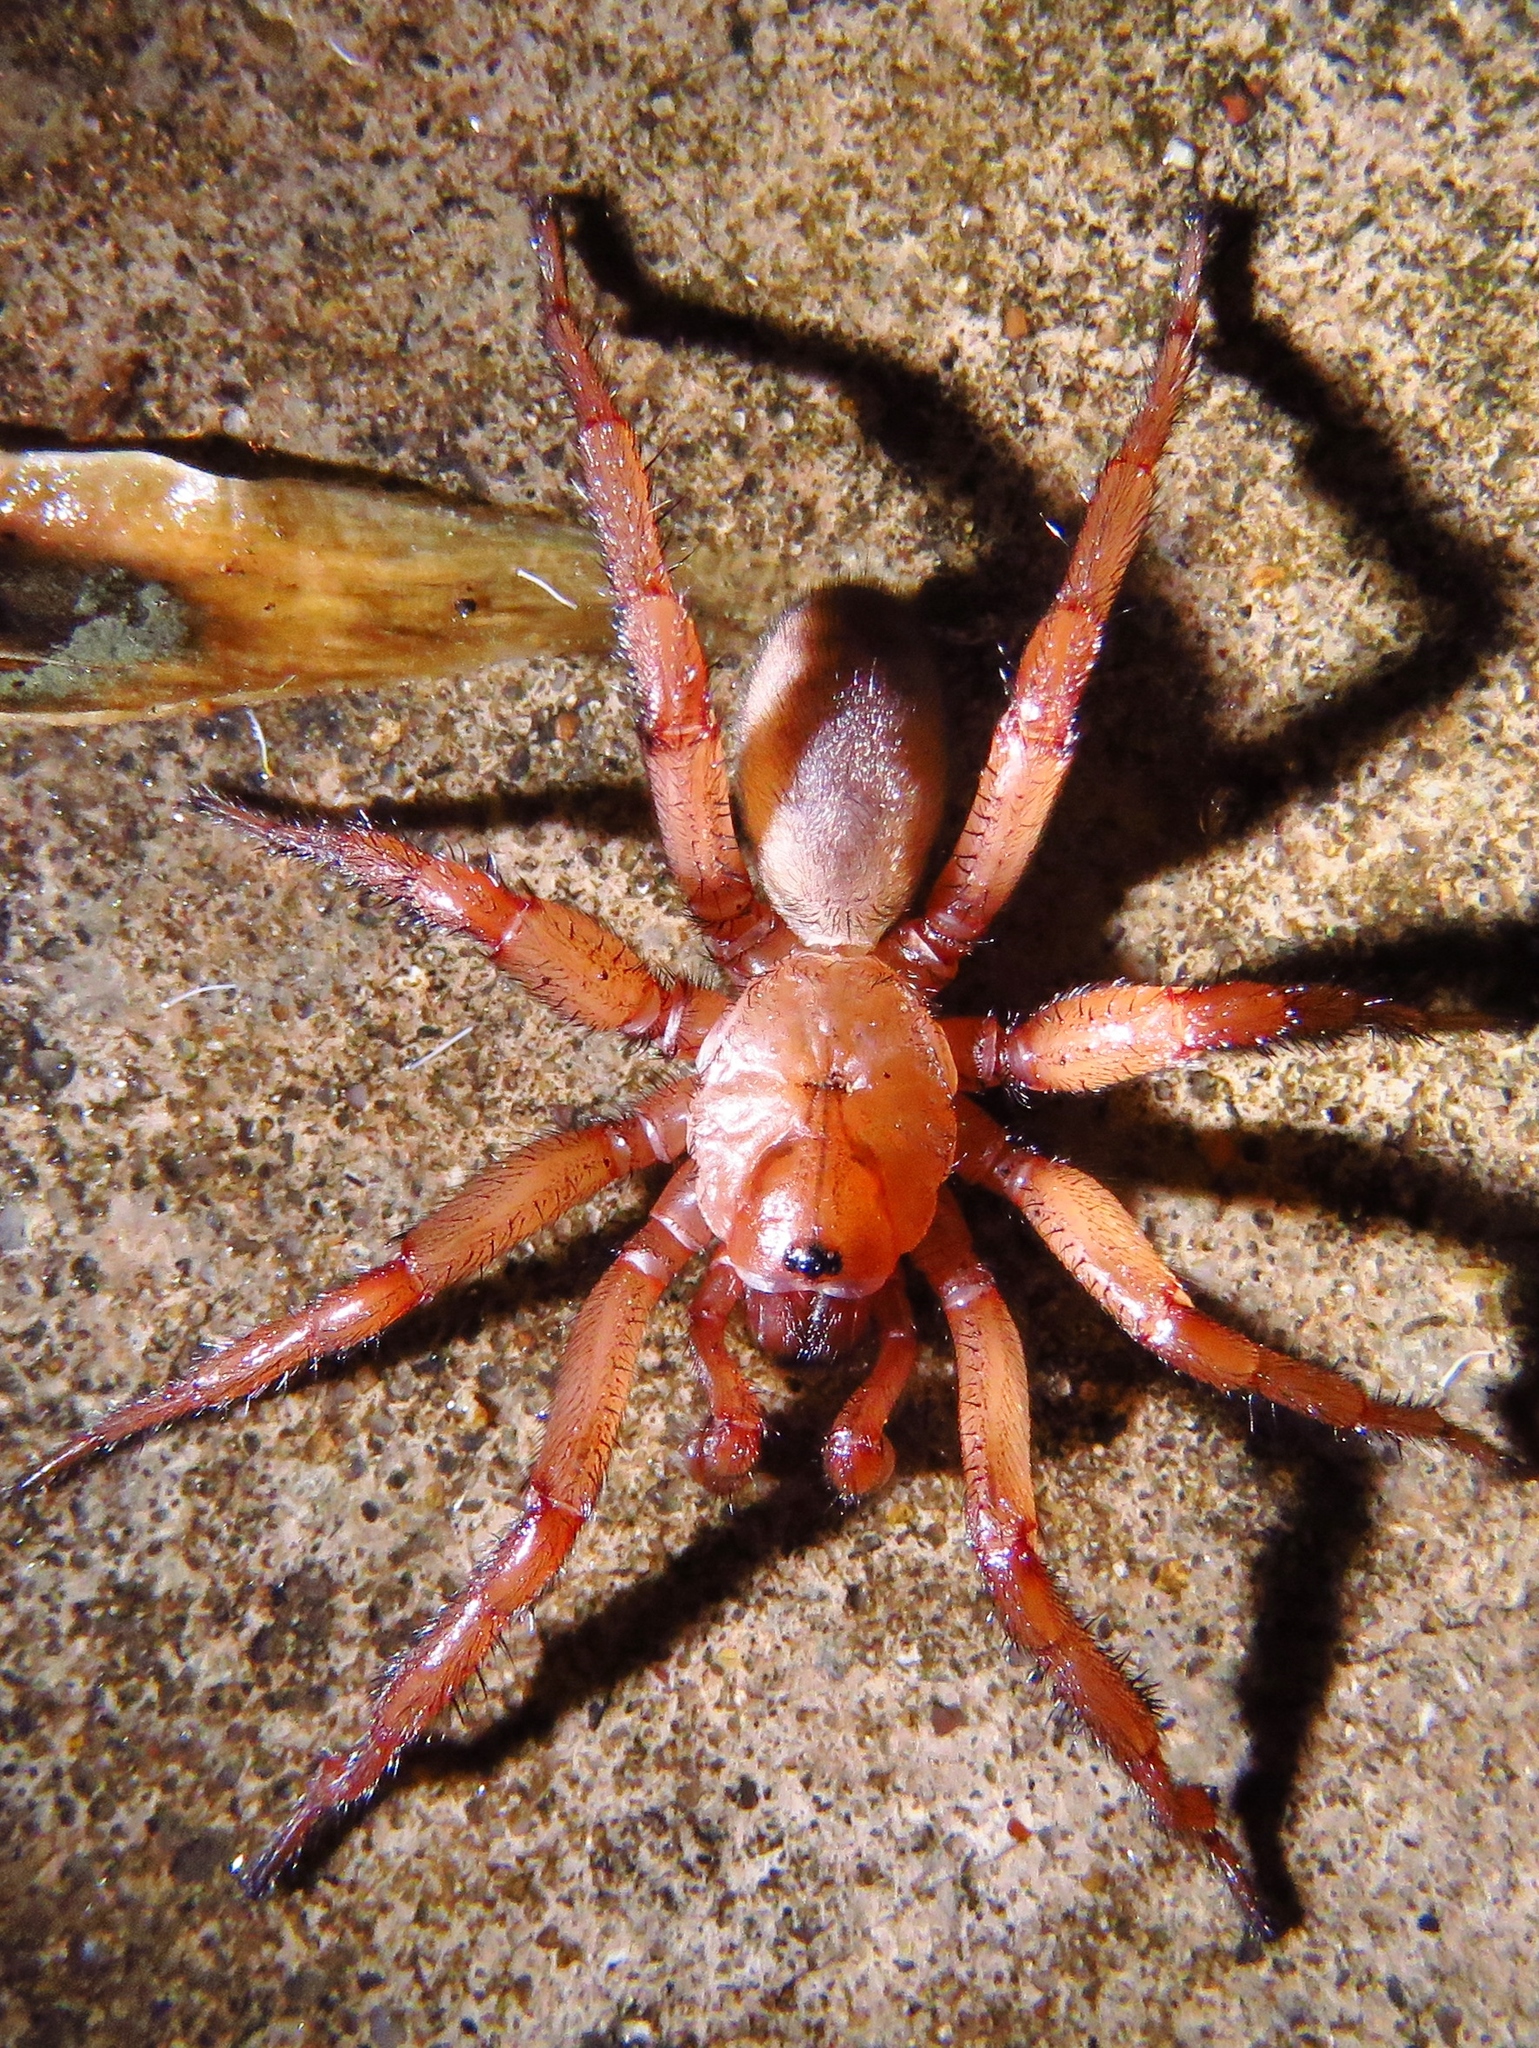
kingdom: Animalia
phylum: Arthropoda
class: Arachnida
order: Araneae
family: Euctenizidae
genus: Myrmekiaphila
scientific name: Myrmekiaphila comstocki
